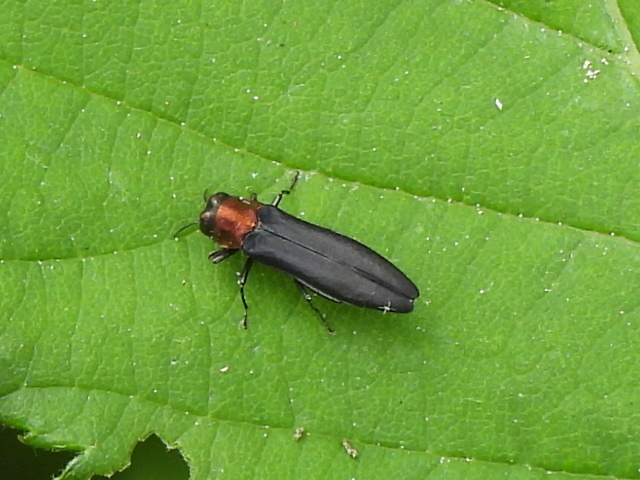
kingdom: Animalia
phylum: Arthropoda
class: Insecta
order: Coleoptera
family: Buprestidae
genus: Agrilus
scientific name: Agrilus ruficollis
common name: Red-necked cane borer beetle
